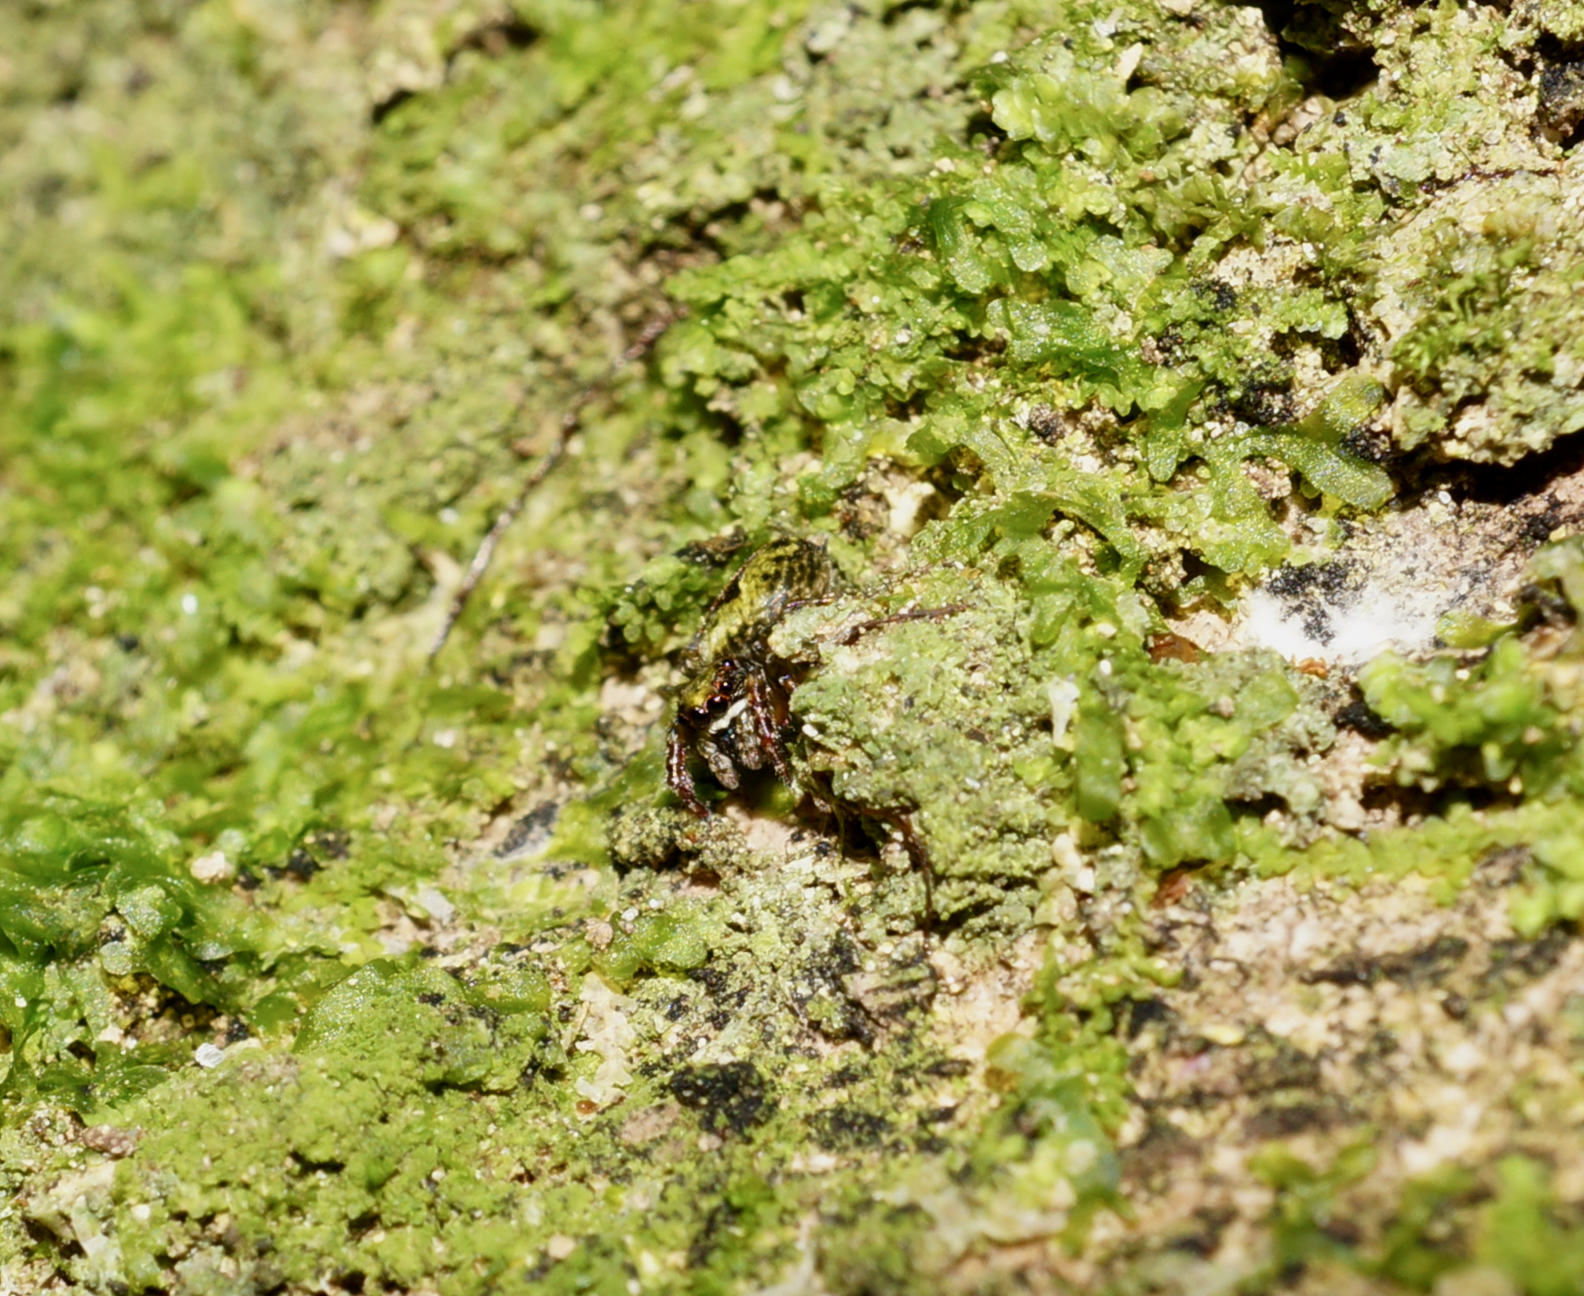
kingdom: Animalia
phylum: Arthropoda
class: Arachnida
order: Araneae
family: Salticidae
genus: Hinewaia
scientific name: Hinewaia embolica
